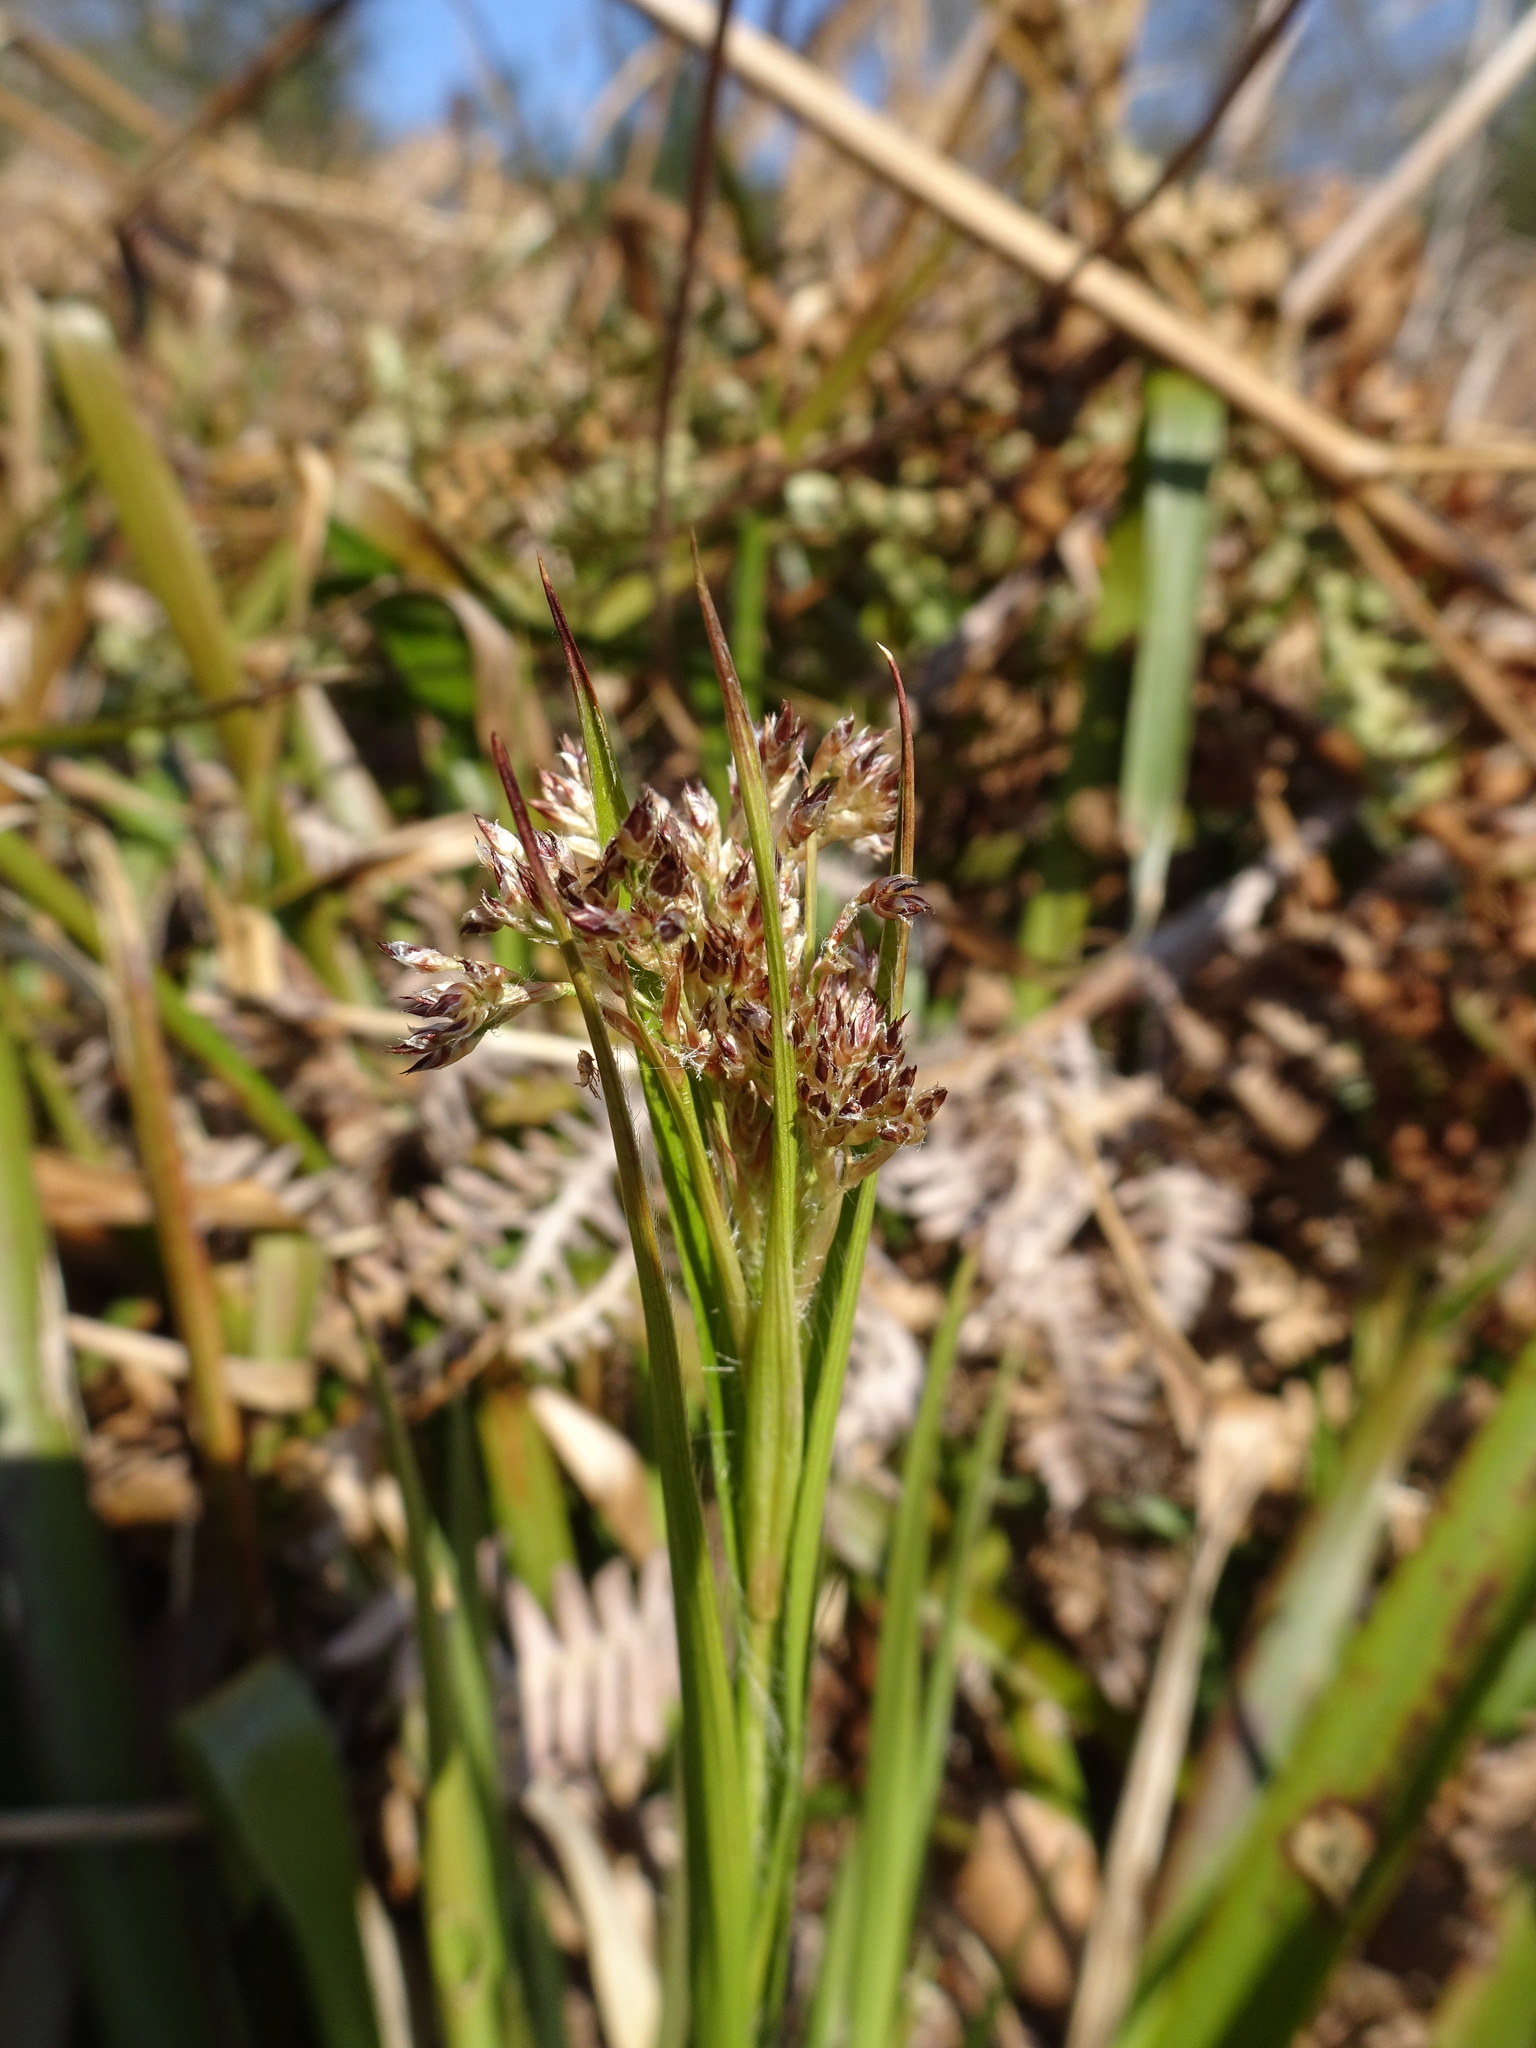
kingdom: Plantae
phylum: Tracheophyta
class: Liliopsida
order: Poales
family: Juncaceae
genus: Luzula
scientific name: Luzula sylvatica
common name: Great wood-rush
